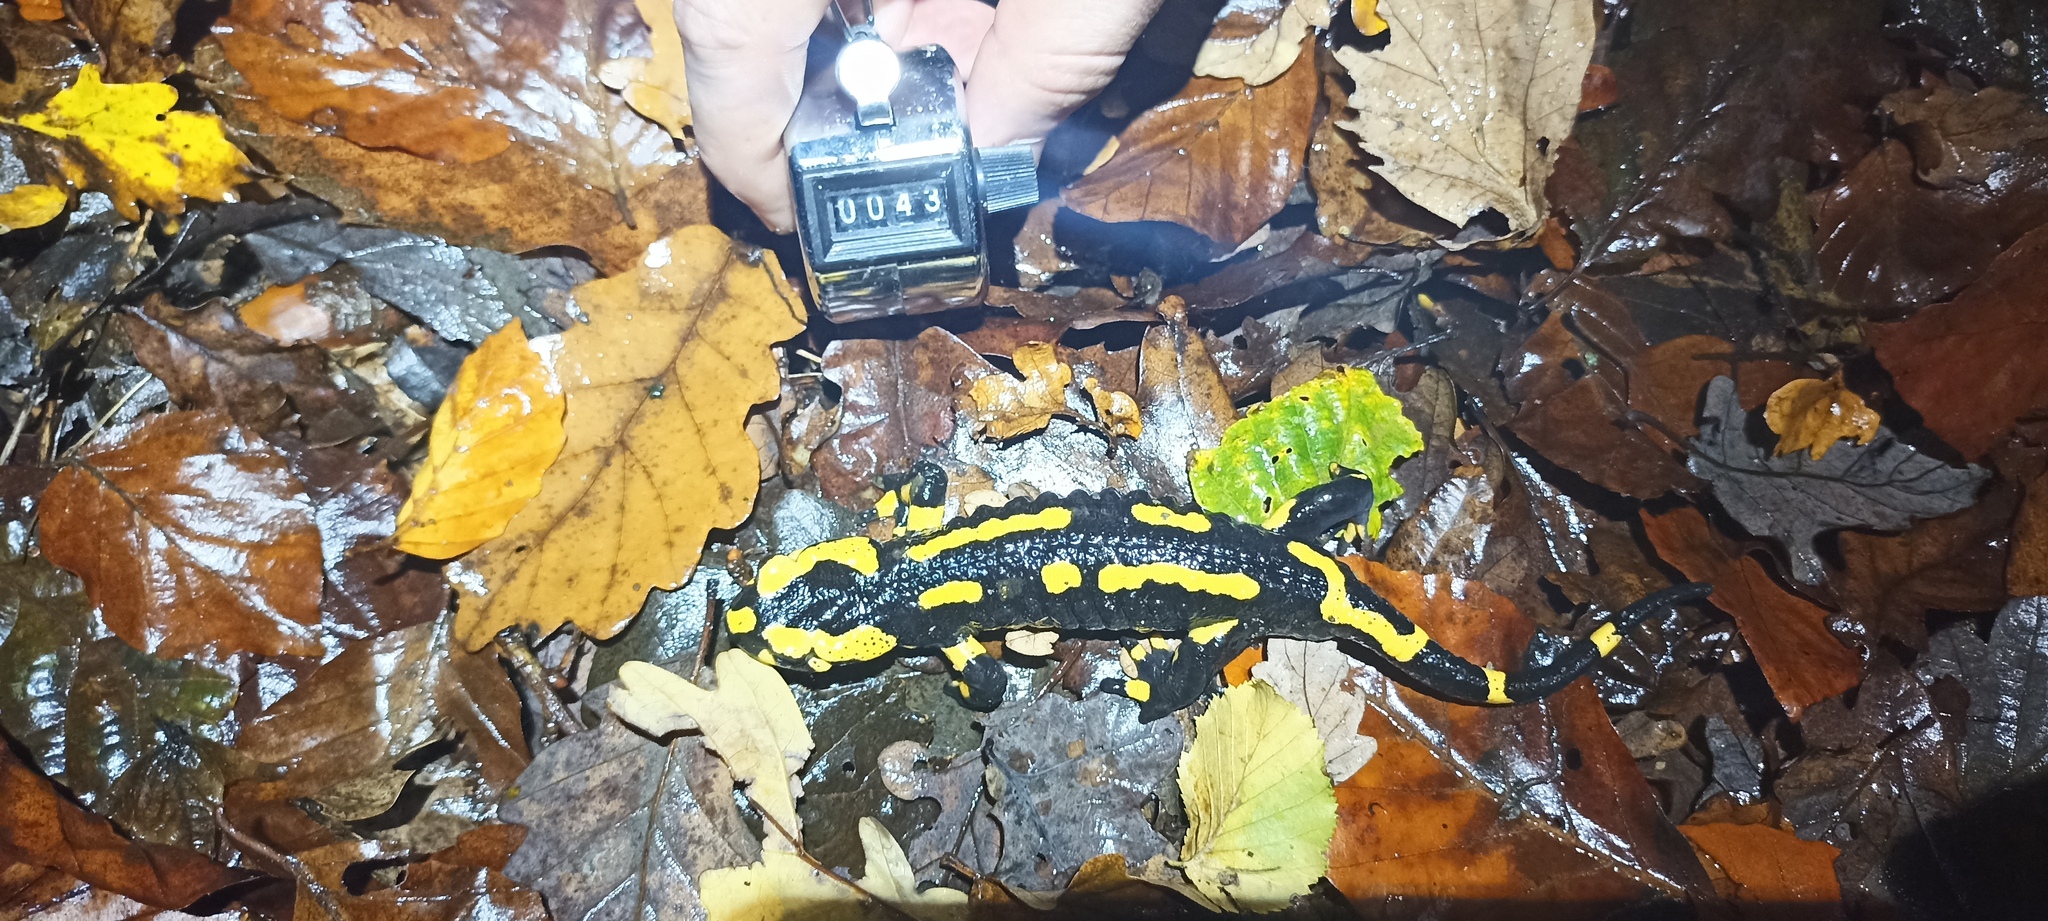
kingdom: Animalia
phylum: Chordata
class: Amphibia
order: Caudata
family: Salamandridae
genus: Salamandra
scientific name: Salamandra salamandra
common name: Fire salamander
